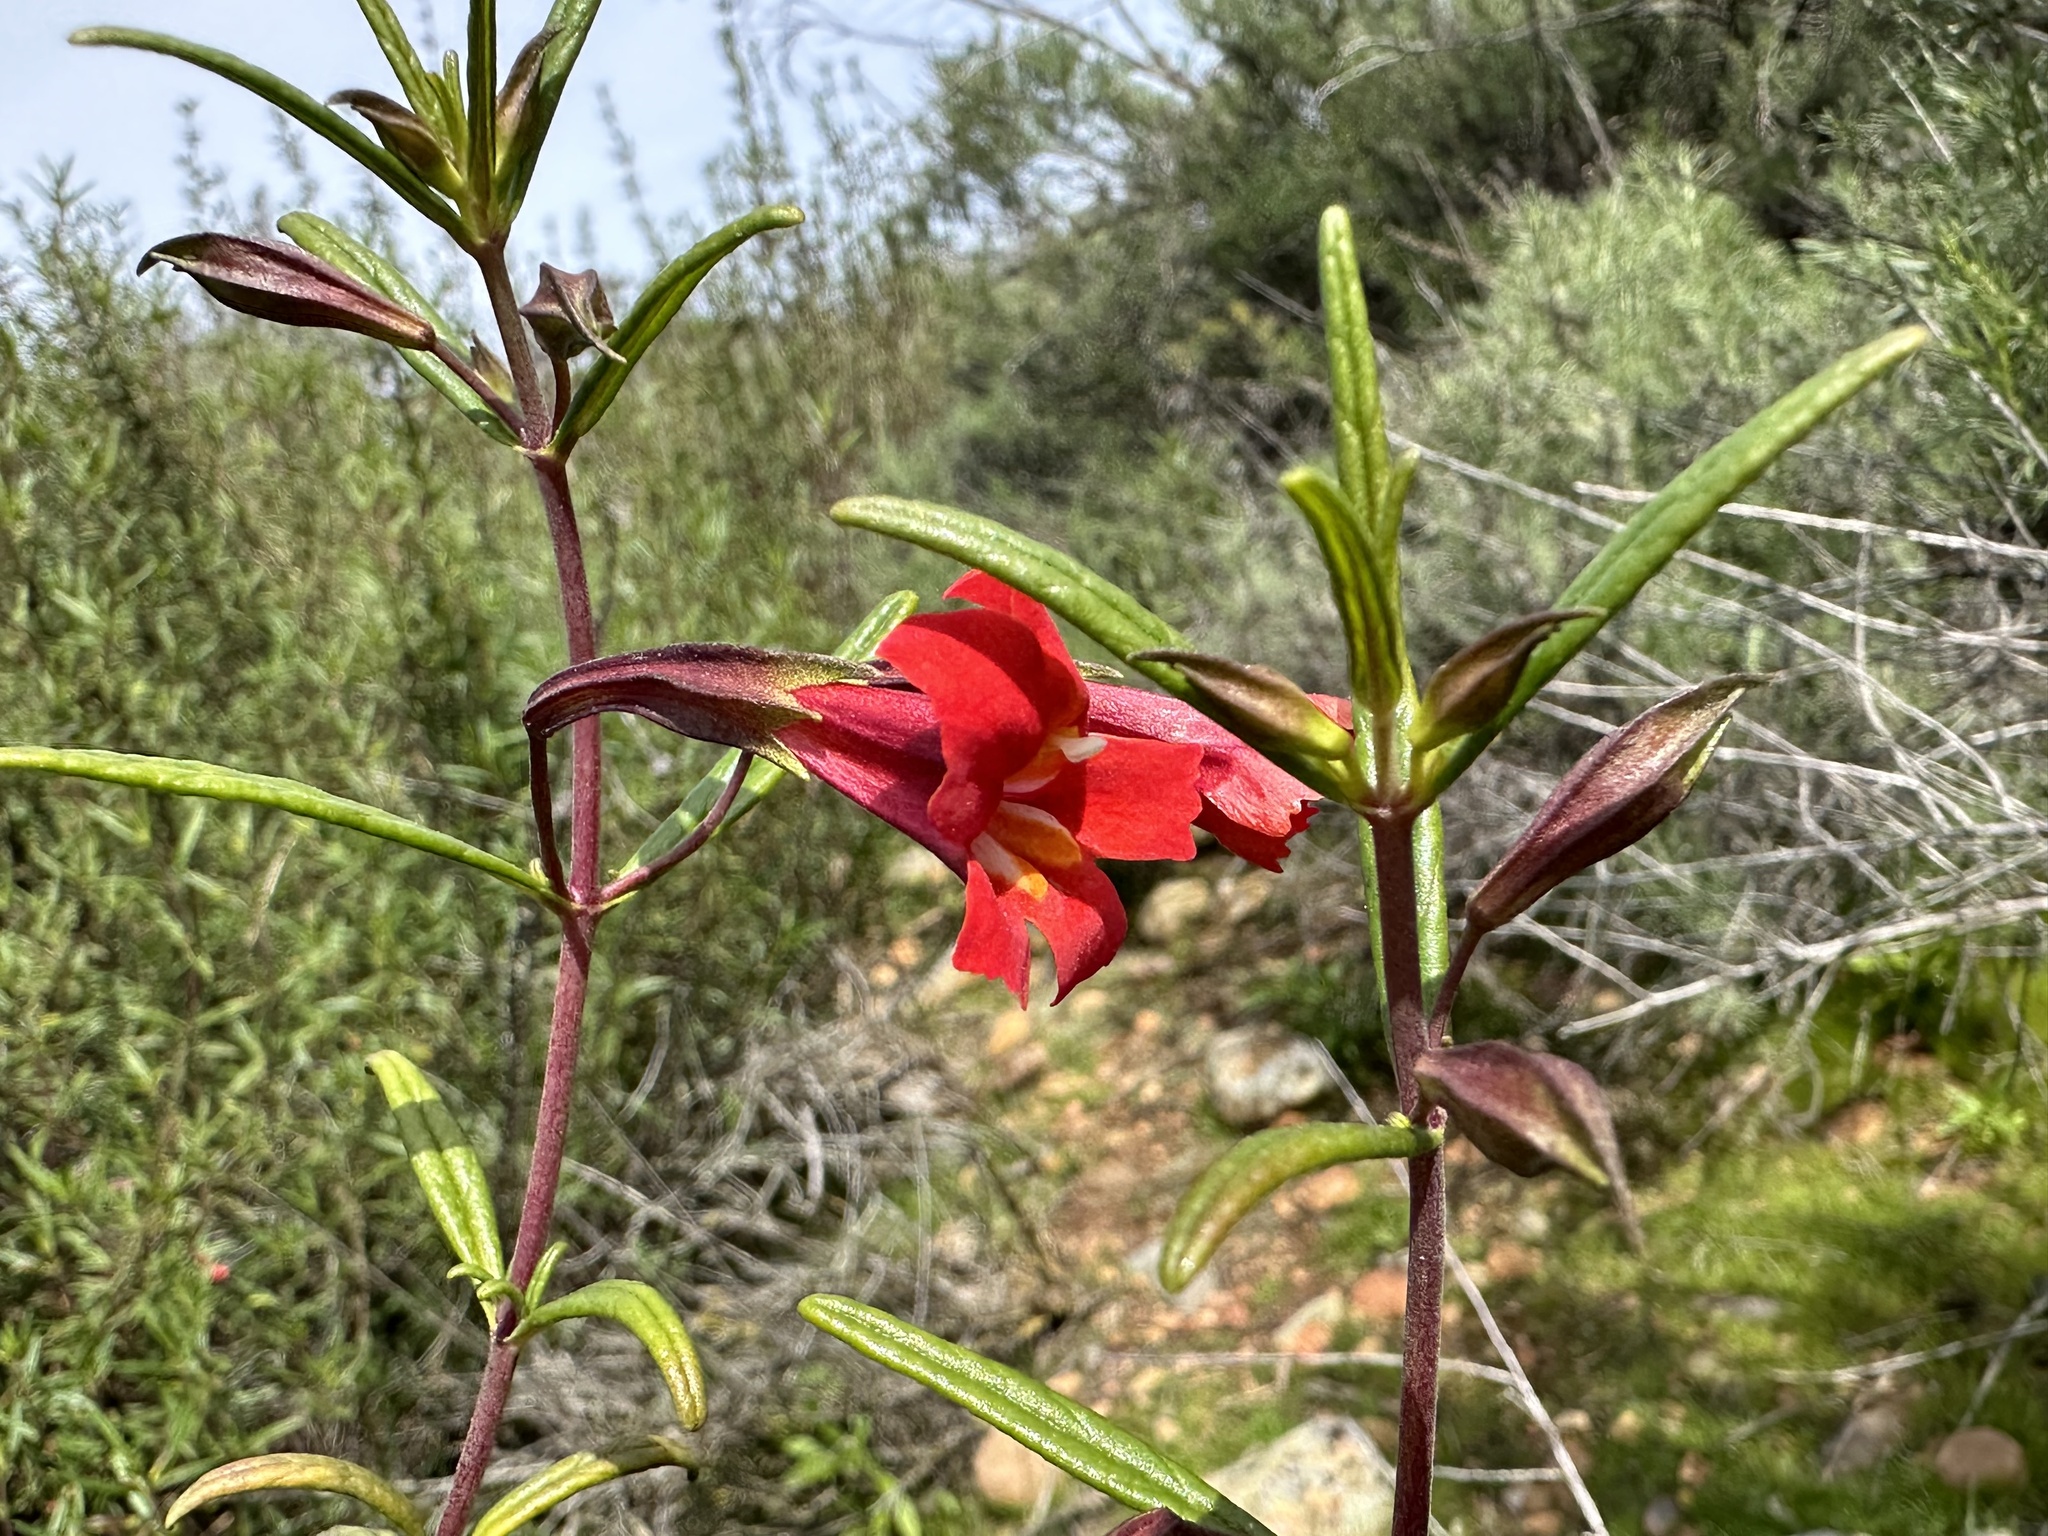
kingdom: Plantae
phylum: Tracheophyta
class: Magnoliopsida
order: Lamiales
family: Phrymaceae
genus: Diplacus
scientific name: Diplacus puniceus
